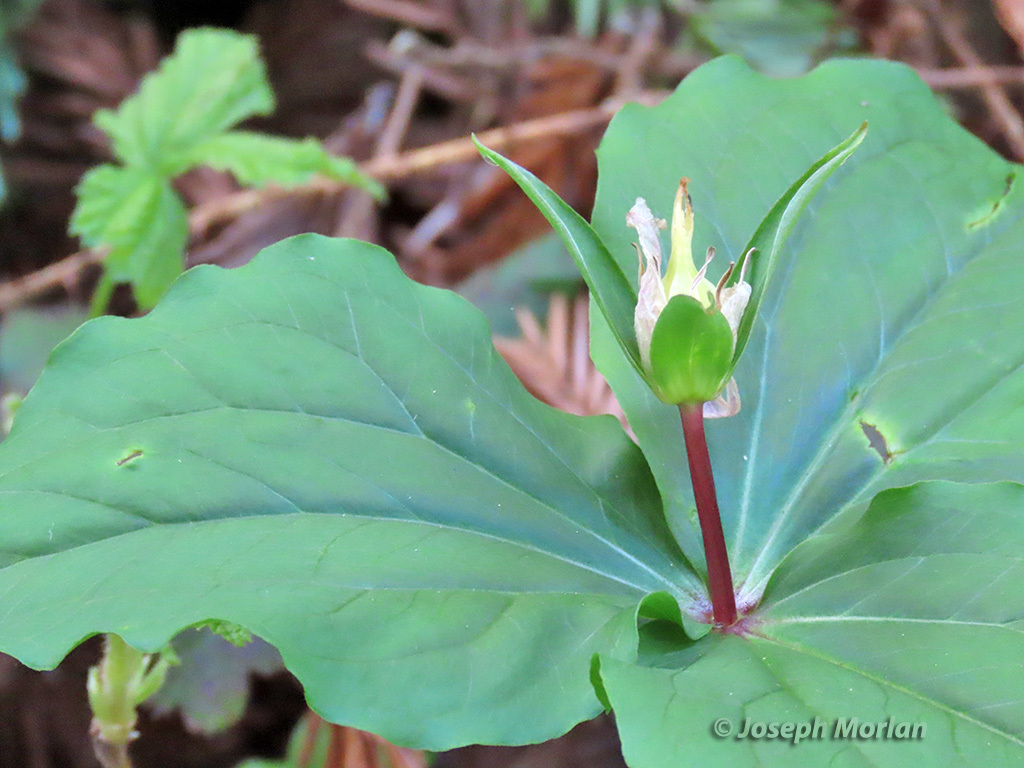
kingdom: Plantae
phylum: Tracheophyta
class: Liliopsida
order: Liliales
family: Melanthiaceae
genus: Trillium
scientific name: Trillium ovatum
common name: Pacific trillium
